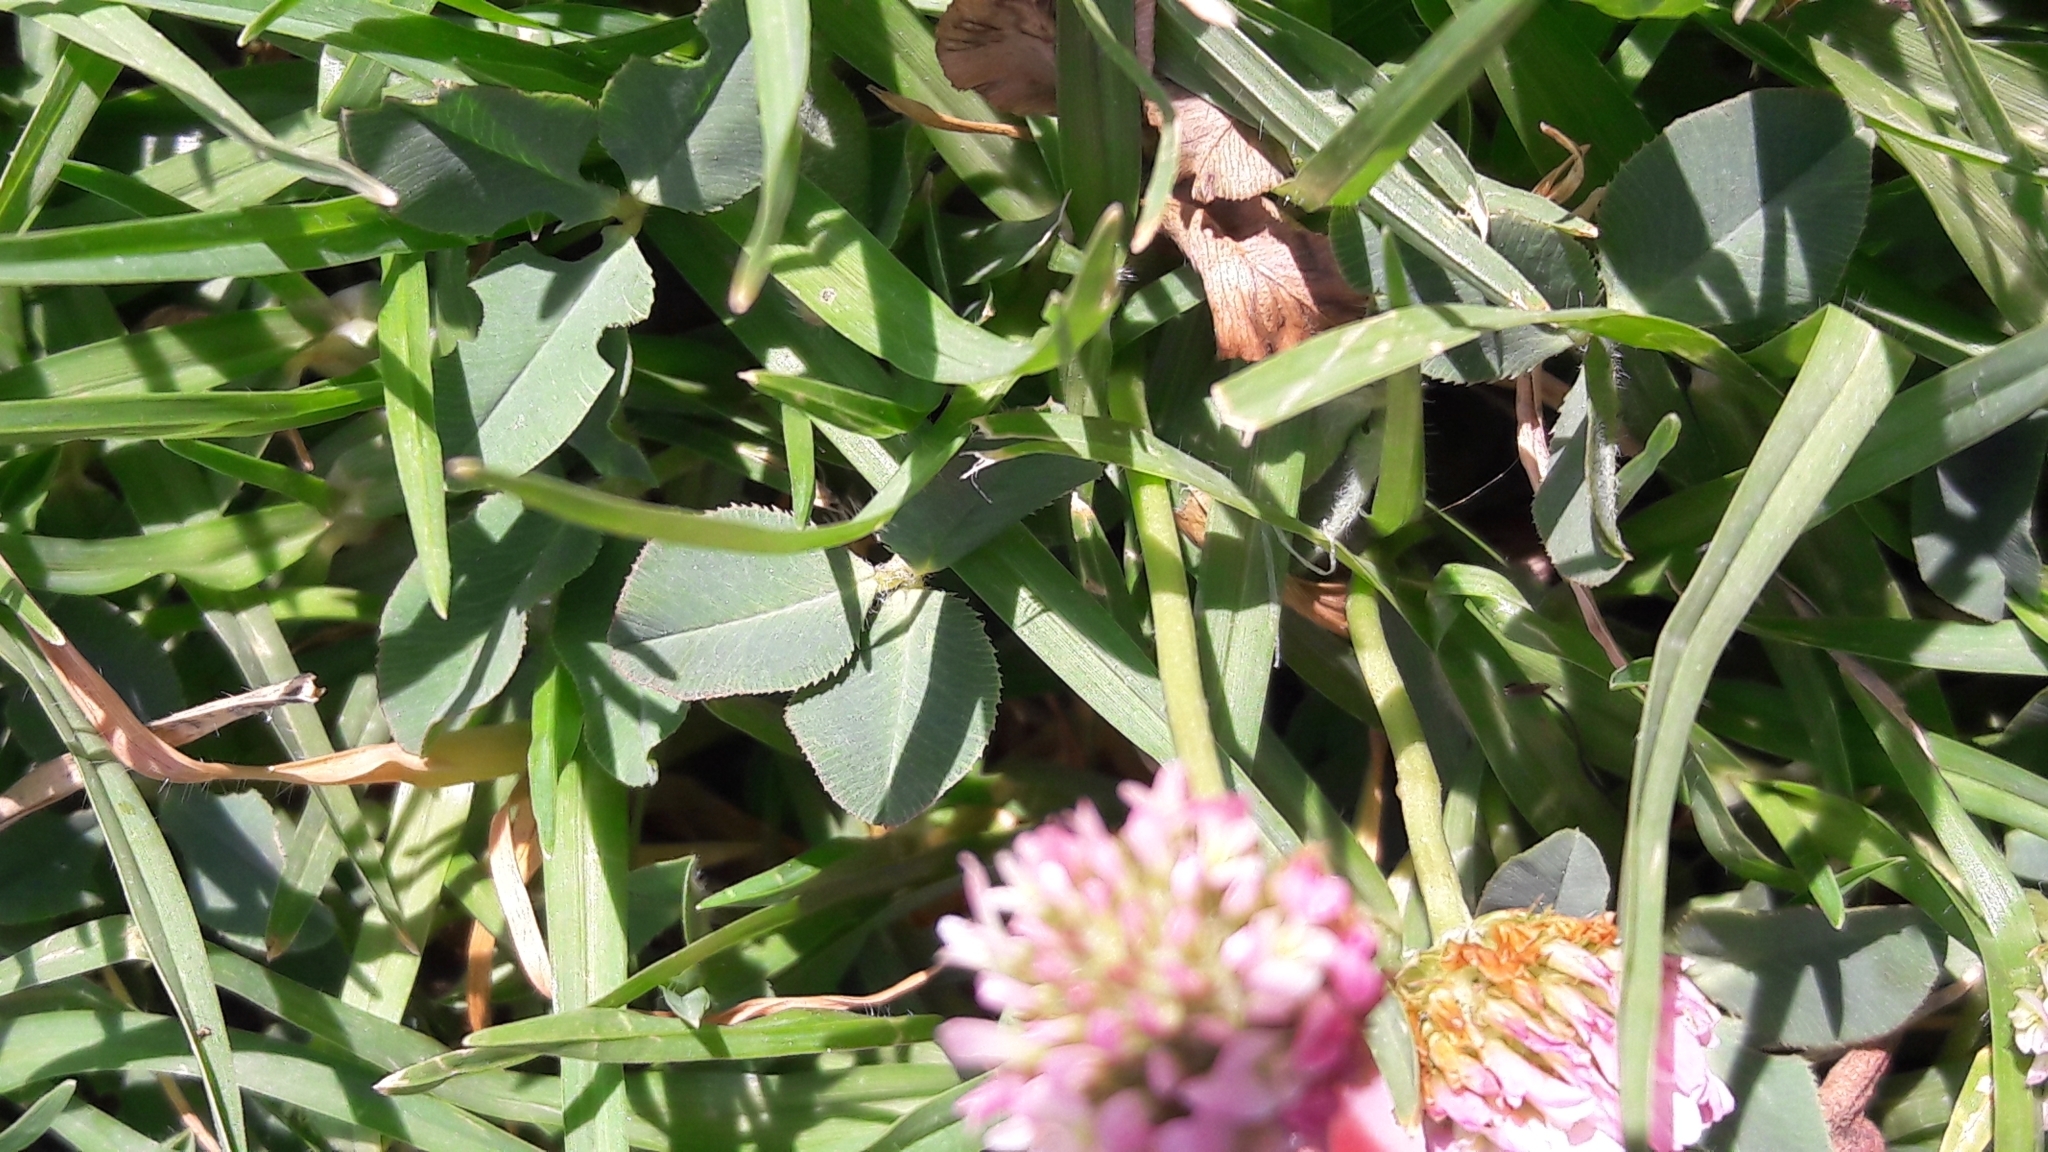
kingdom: Plantae
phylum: Tracheophyta
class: Magnoliopsida
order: Fabales
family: Fabaceae
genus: Trifolium
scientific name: Trifolium fragiferum
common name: Strawberry clover
